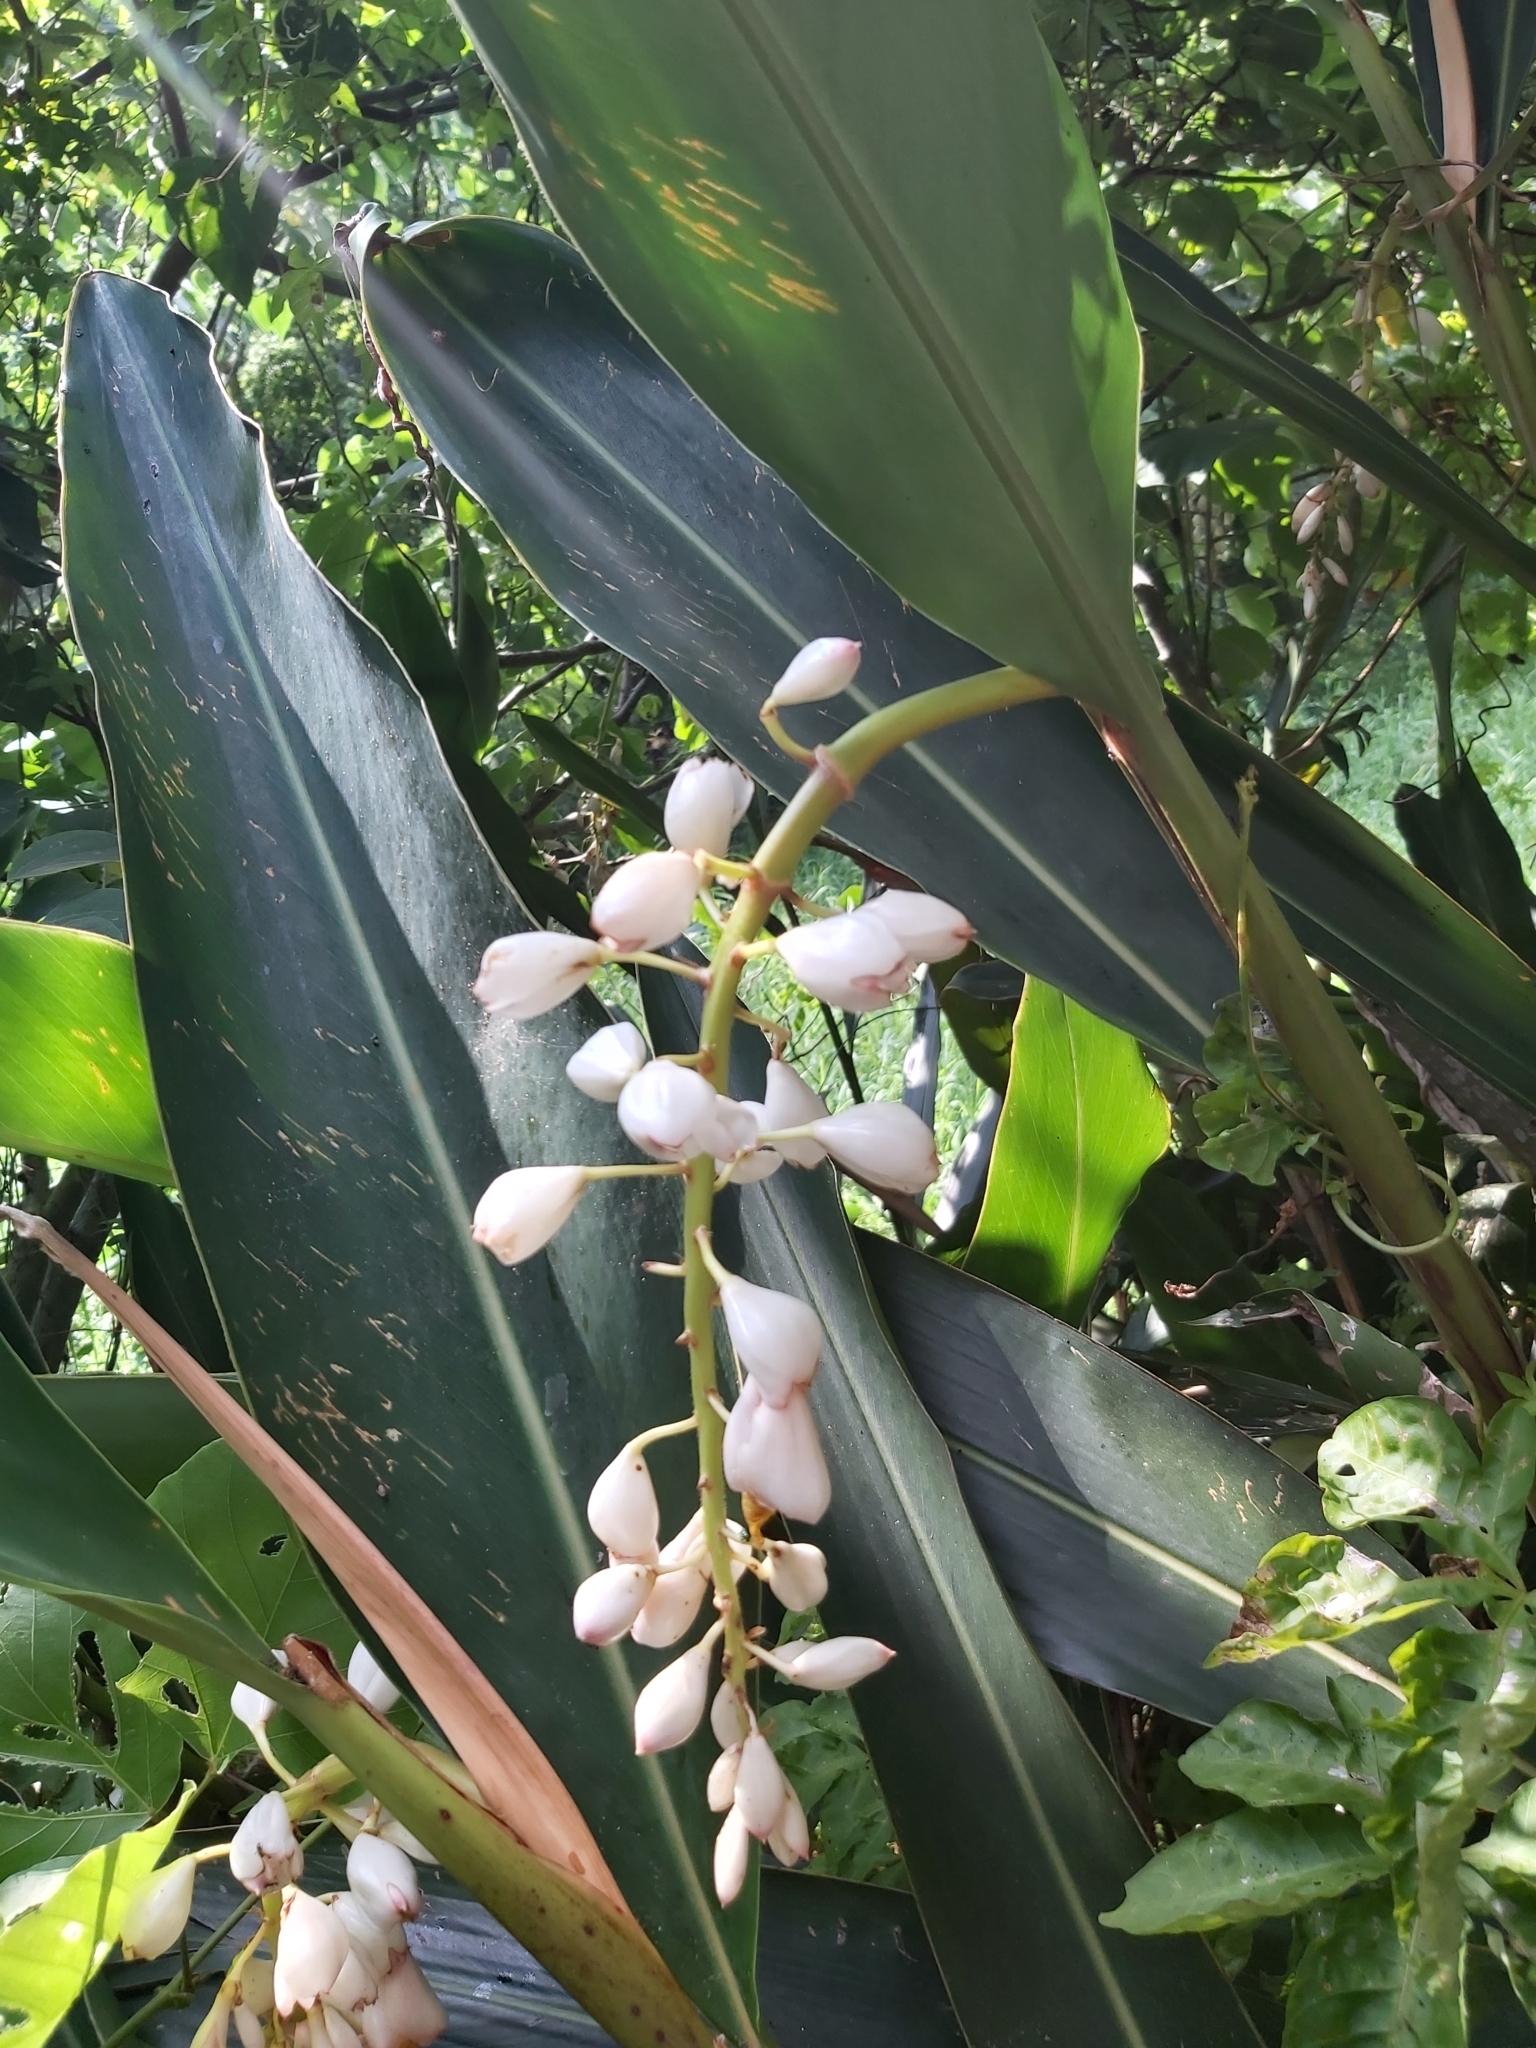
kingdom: Plantae
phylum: Tracheophyta
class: Liliopsida
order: Zingiberales
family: Zingiberaceae
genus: Alpinia
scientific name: Alpinia zerumbet
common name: Shellplant
